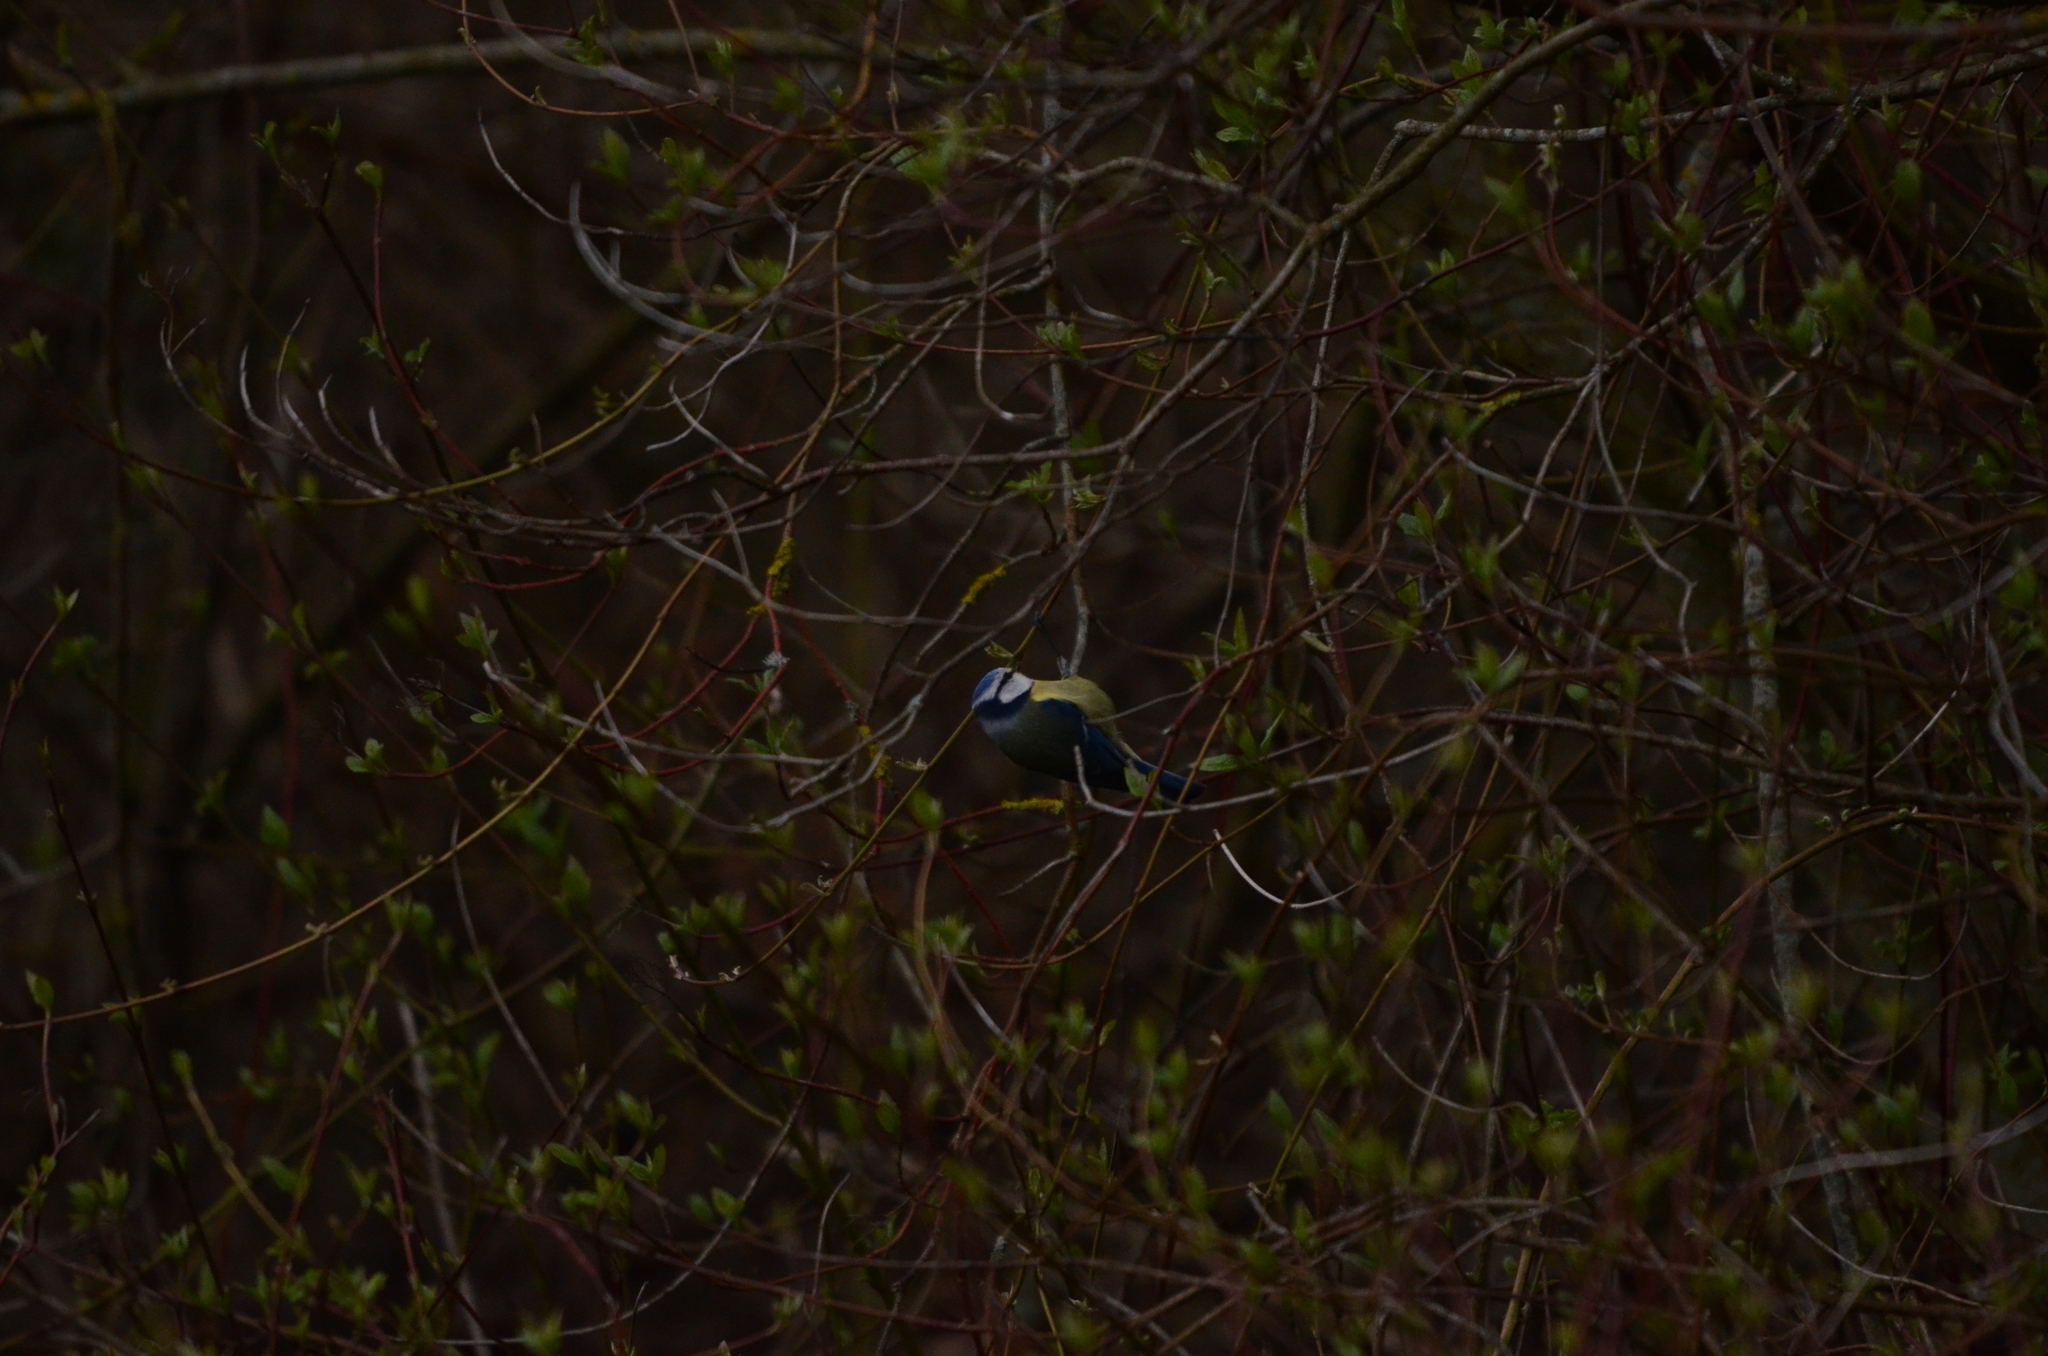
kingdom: Animalia
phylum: Chordata
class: Aves
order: Passeriformes
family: Paridae
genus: Cyanistes
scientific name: Cyanistes caeruleus
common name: Eurasian blue tit
